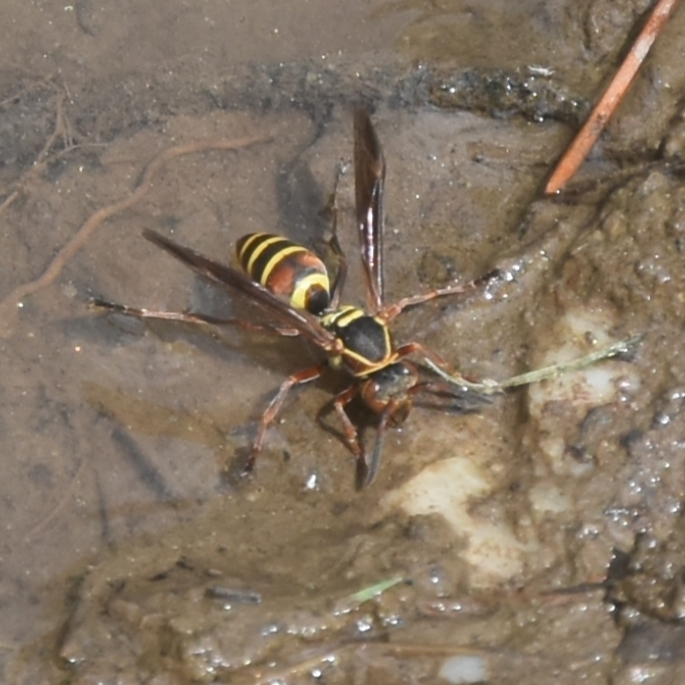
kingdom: Animalia
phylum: Arthropoda
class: Insecta
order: Hymenoptera
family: Eumenidae
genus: Knemodynerus
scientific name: Knemodynerus multimaculatus
